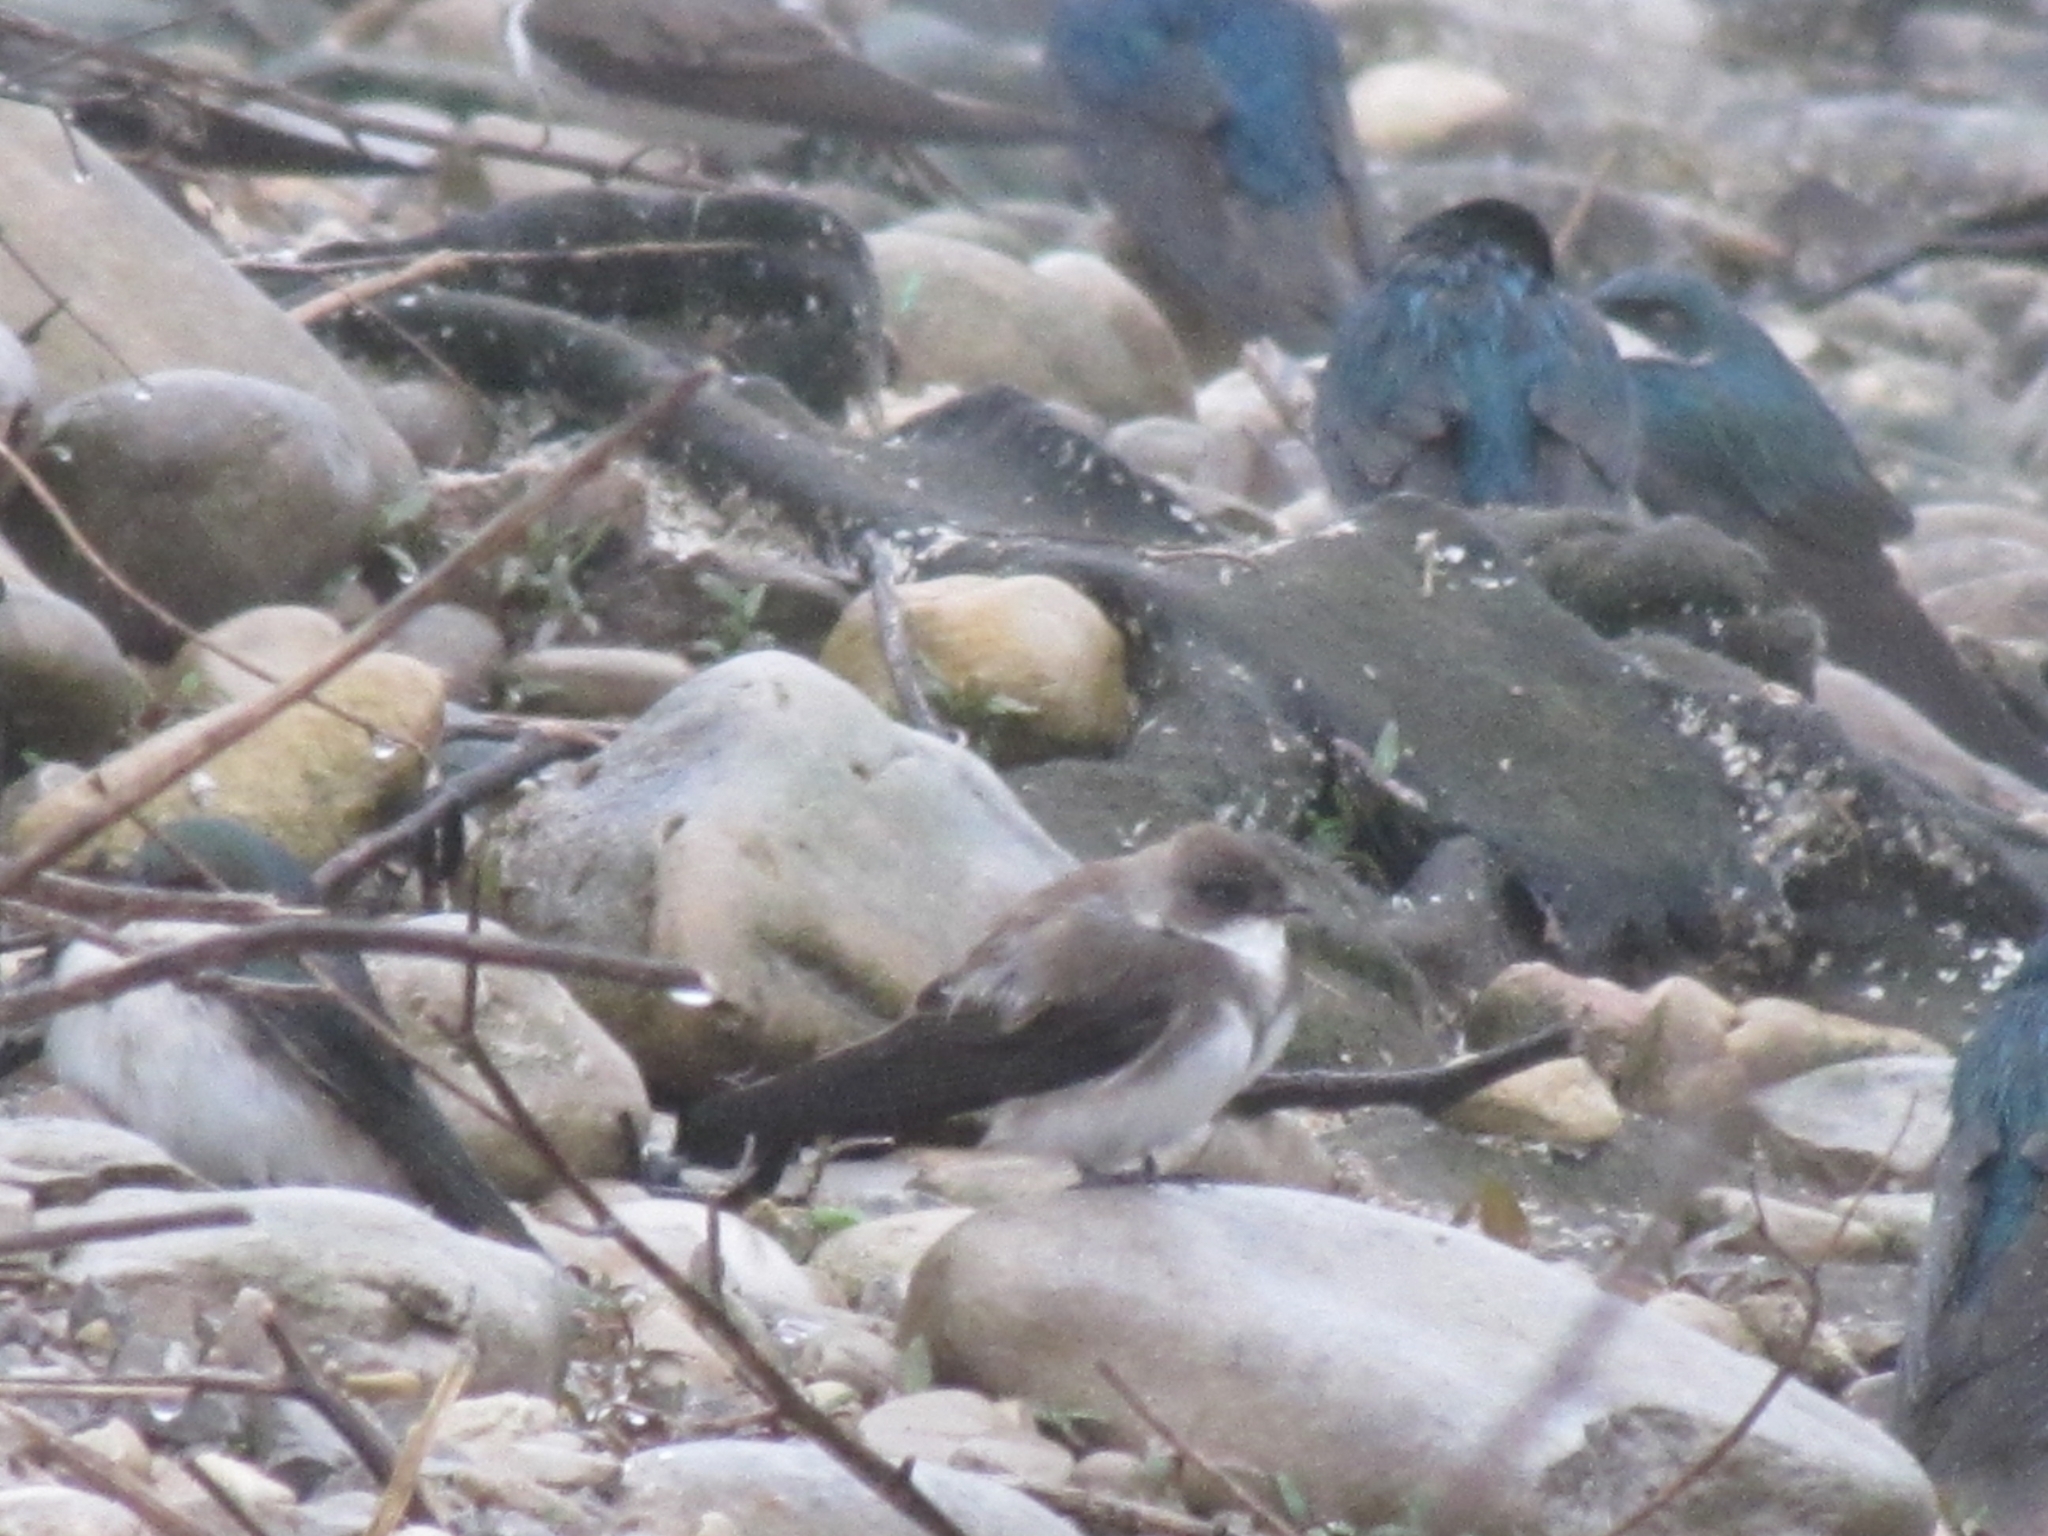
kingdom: Animalia
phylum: Chordata
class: Aves
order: Passeriformes
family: Hirundinidae
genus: Riparia
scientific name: Riparia riparia
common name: Sand martin
